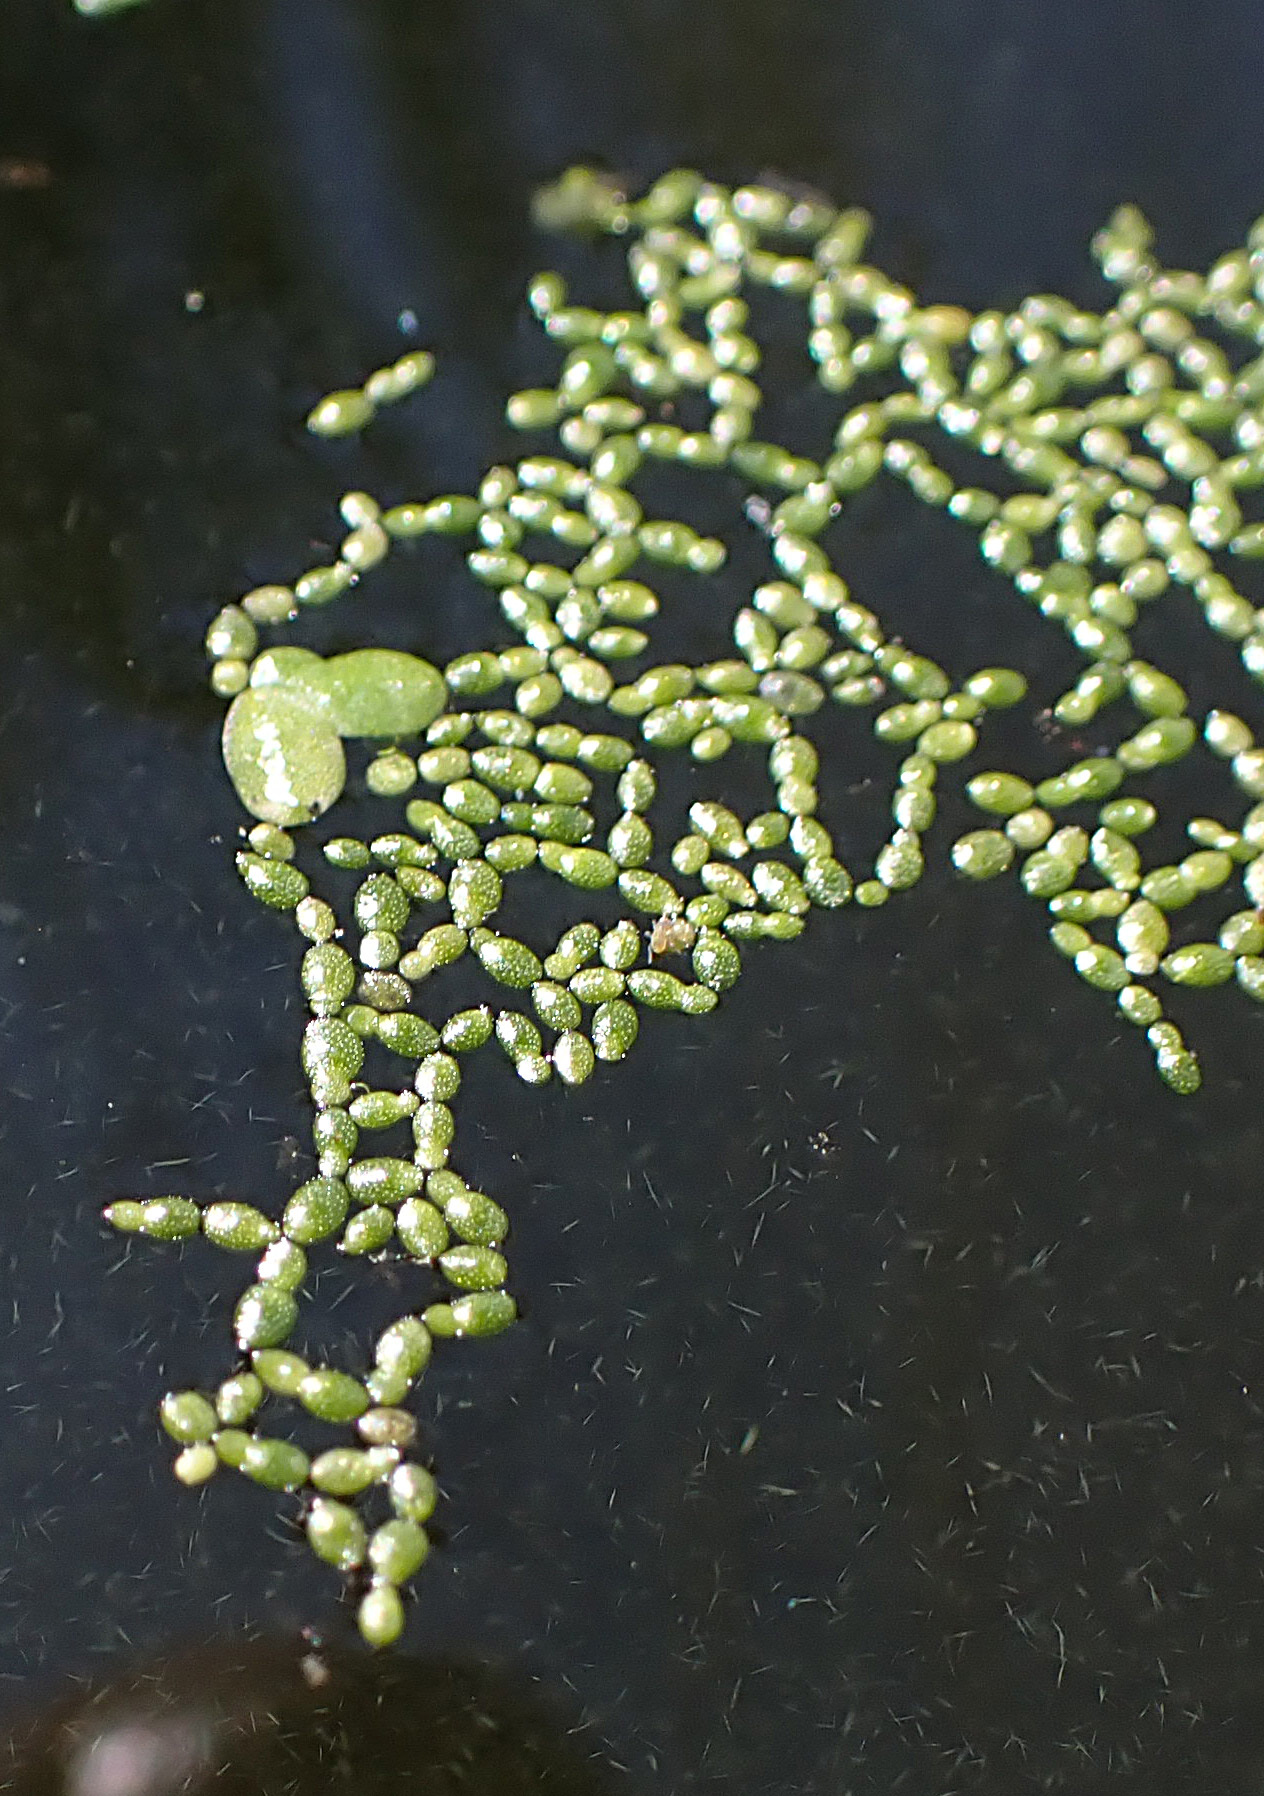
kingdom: Plantae
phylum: Tracheophyta
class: Liliopsida
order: Alismatales
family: Araceae
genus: Wolffia
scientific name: Wolffia brasiliensis
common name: Brazilian watermeal
